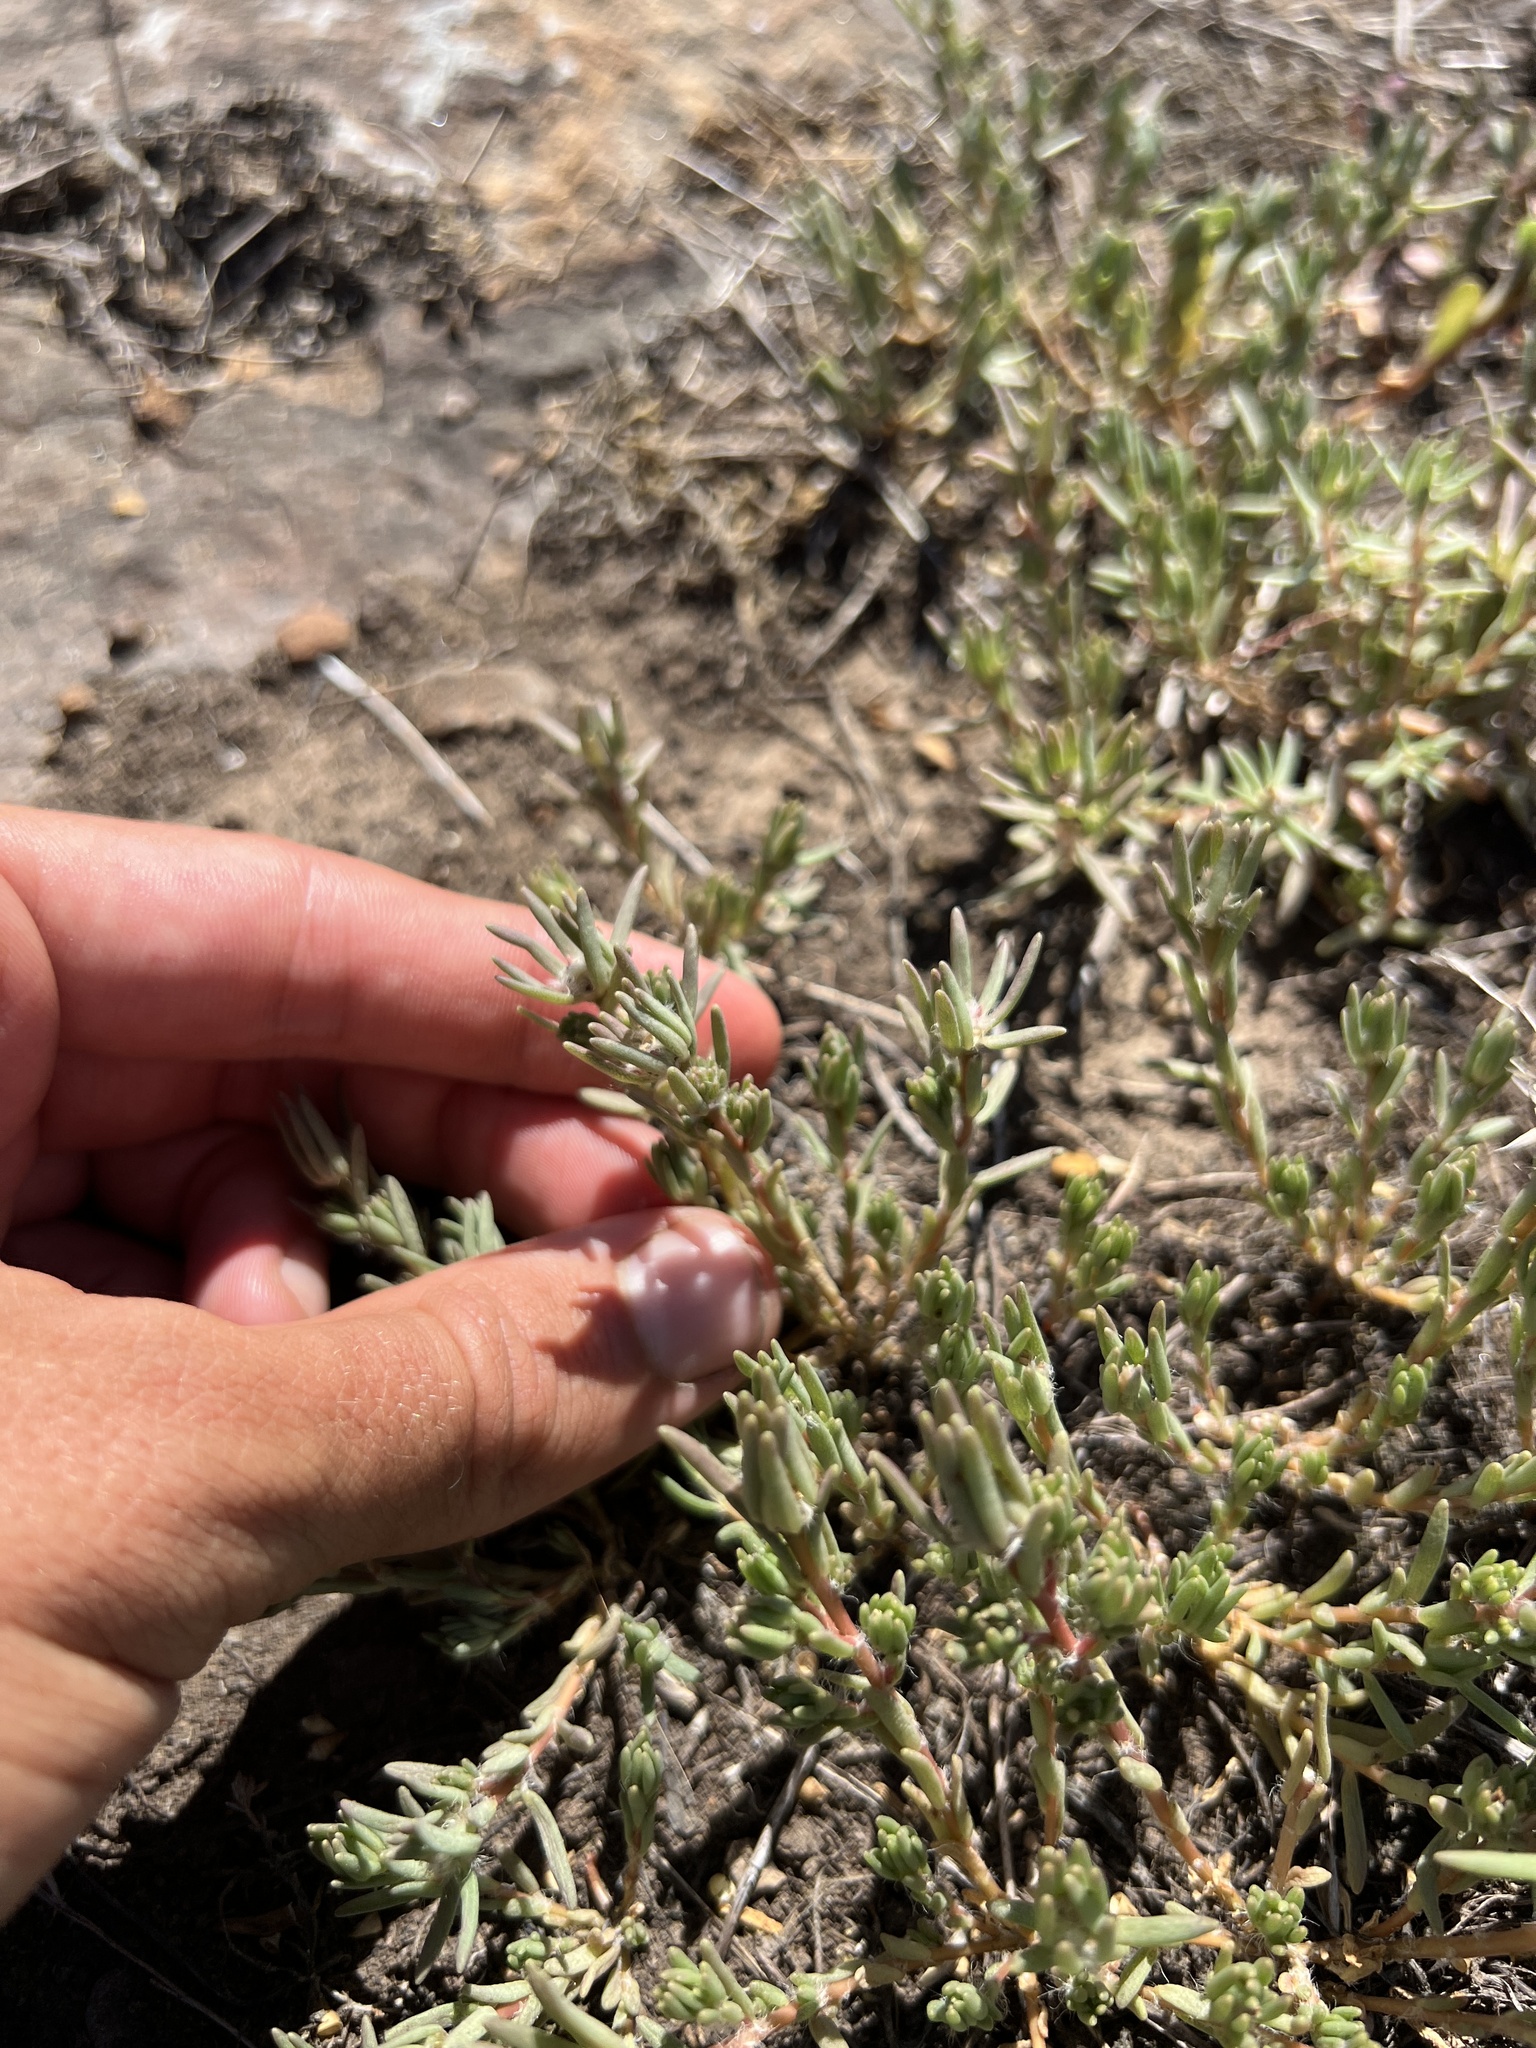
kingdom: Plantae
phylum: Tracheophyta
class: Magnoliopsida
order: Caryophyllales
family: Portulacaceae
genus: Portulaca
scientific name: Portulaca pilosa
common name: Kiss me quick
